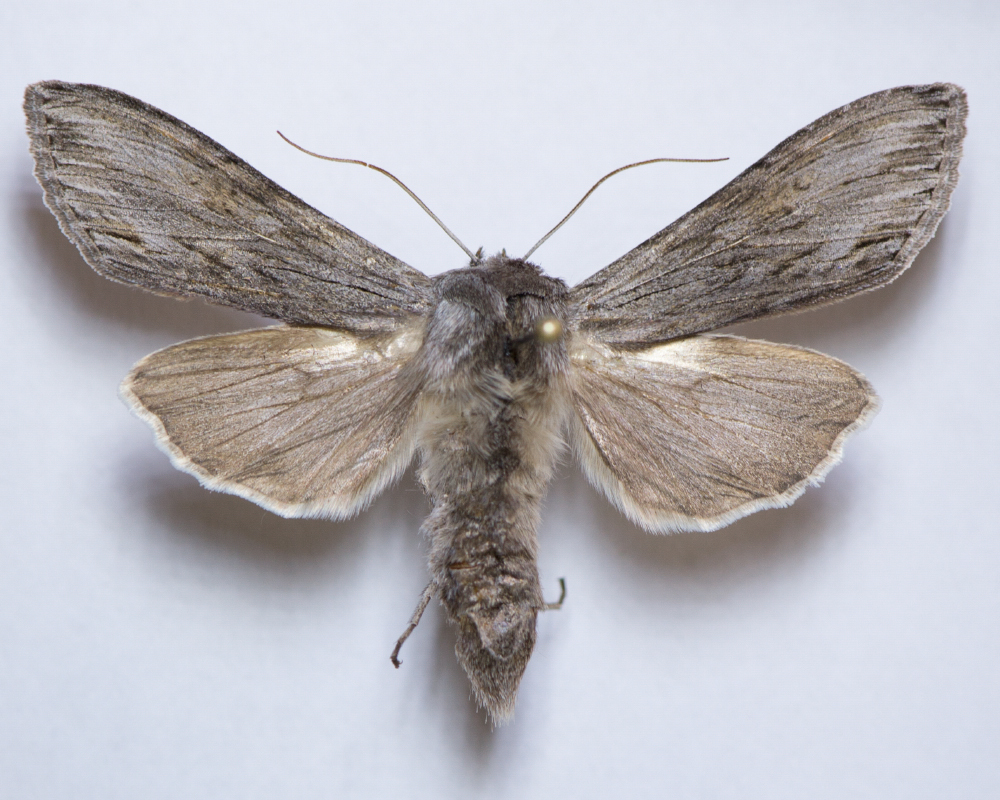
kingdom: Animalia
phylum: Arthropoda
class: Insecta
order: Lepidoptera
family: Noctuidae
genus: Cucullia
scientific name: Cucullia lucifuga
